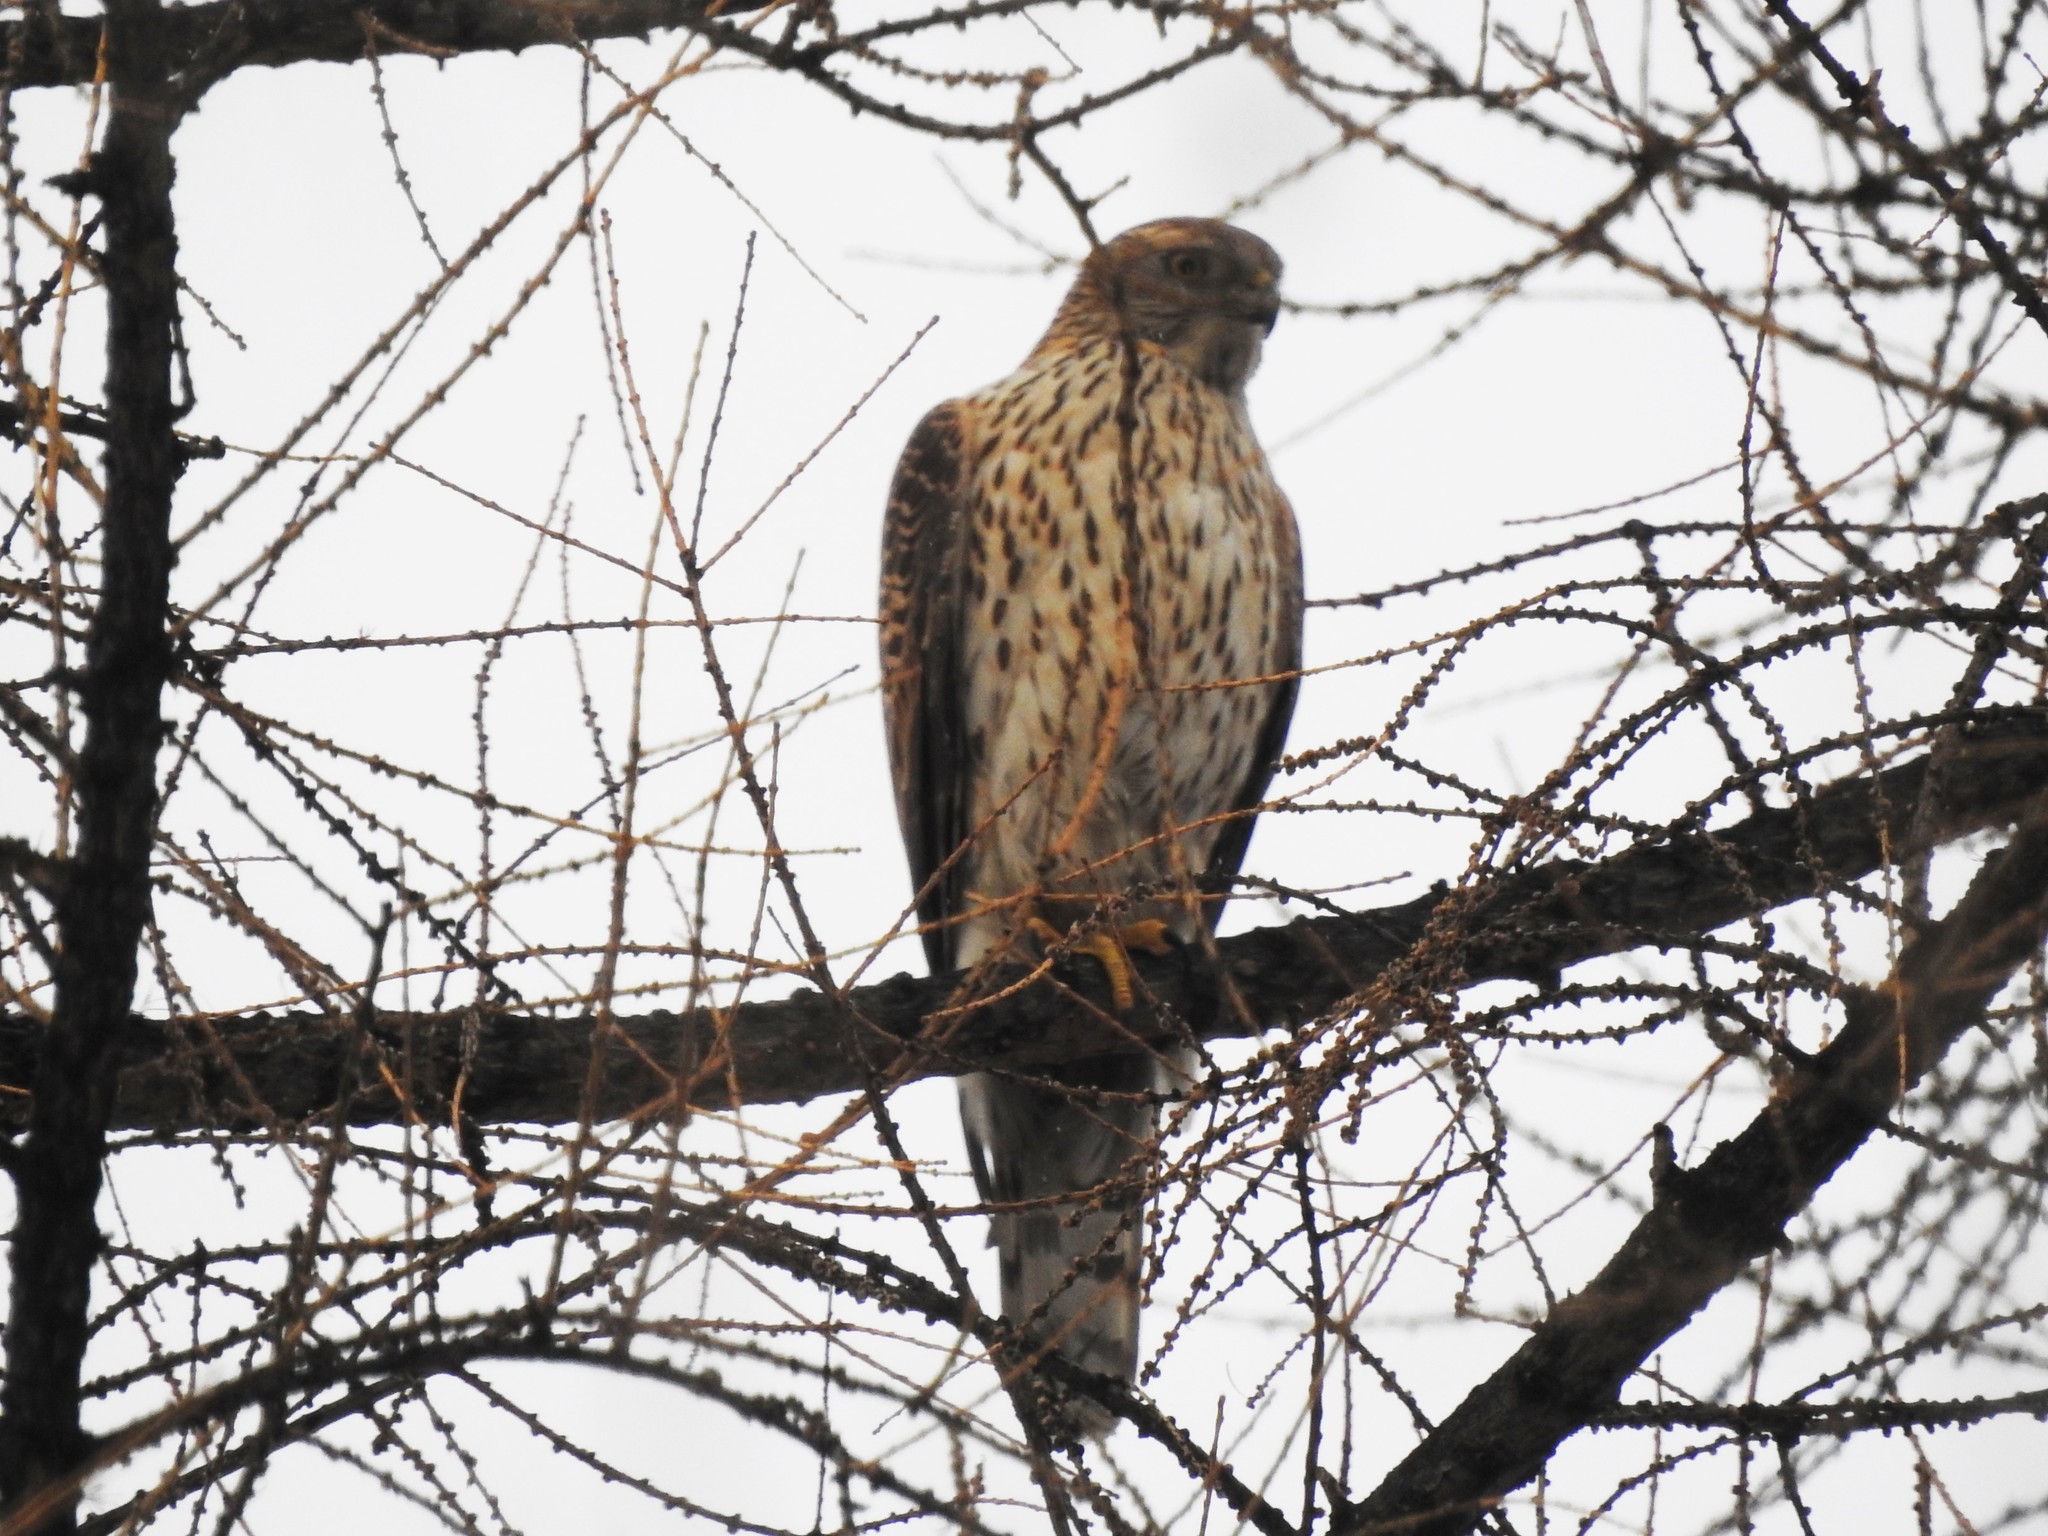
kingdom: Animalia
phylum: Chordata
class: Aves
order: Accipitriformes
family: Accipitridae
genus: Accipiter
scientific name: Accipiter gentilis
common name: Northern goshawk
